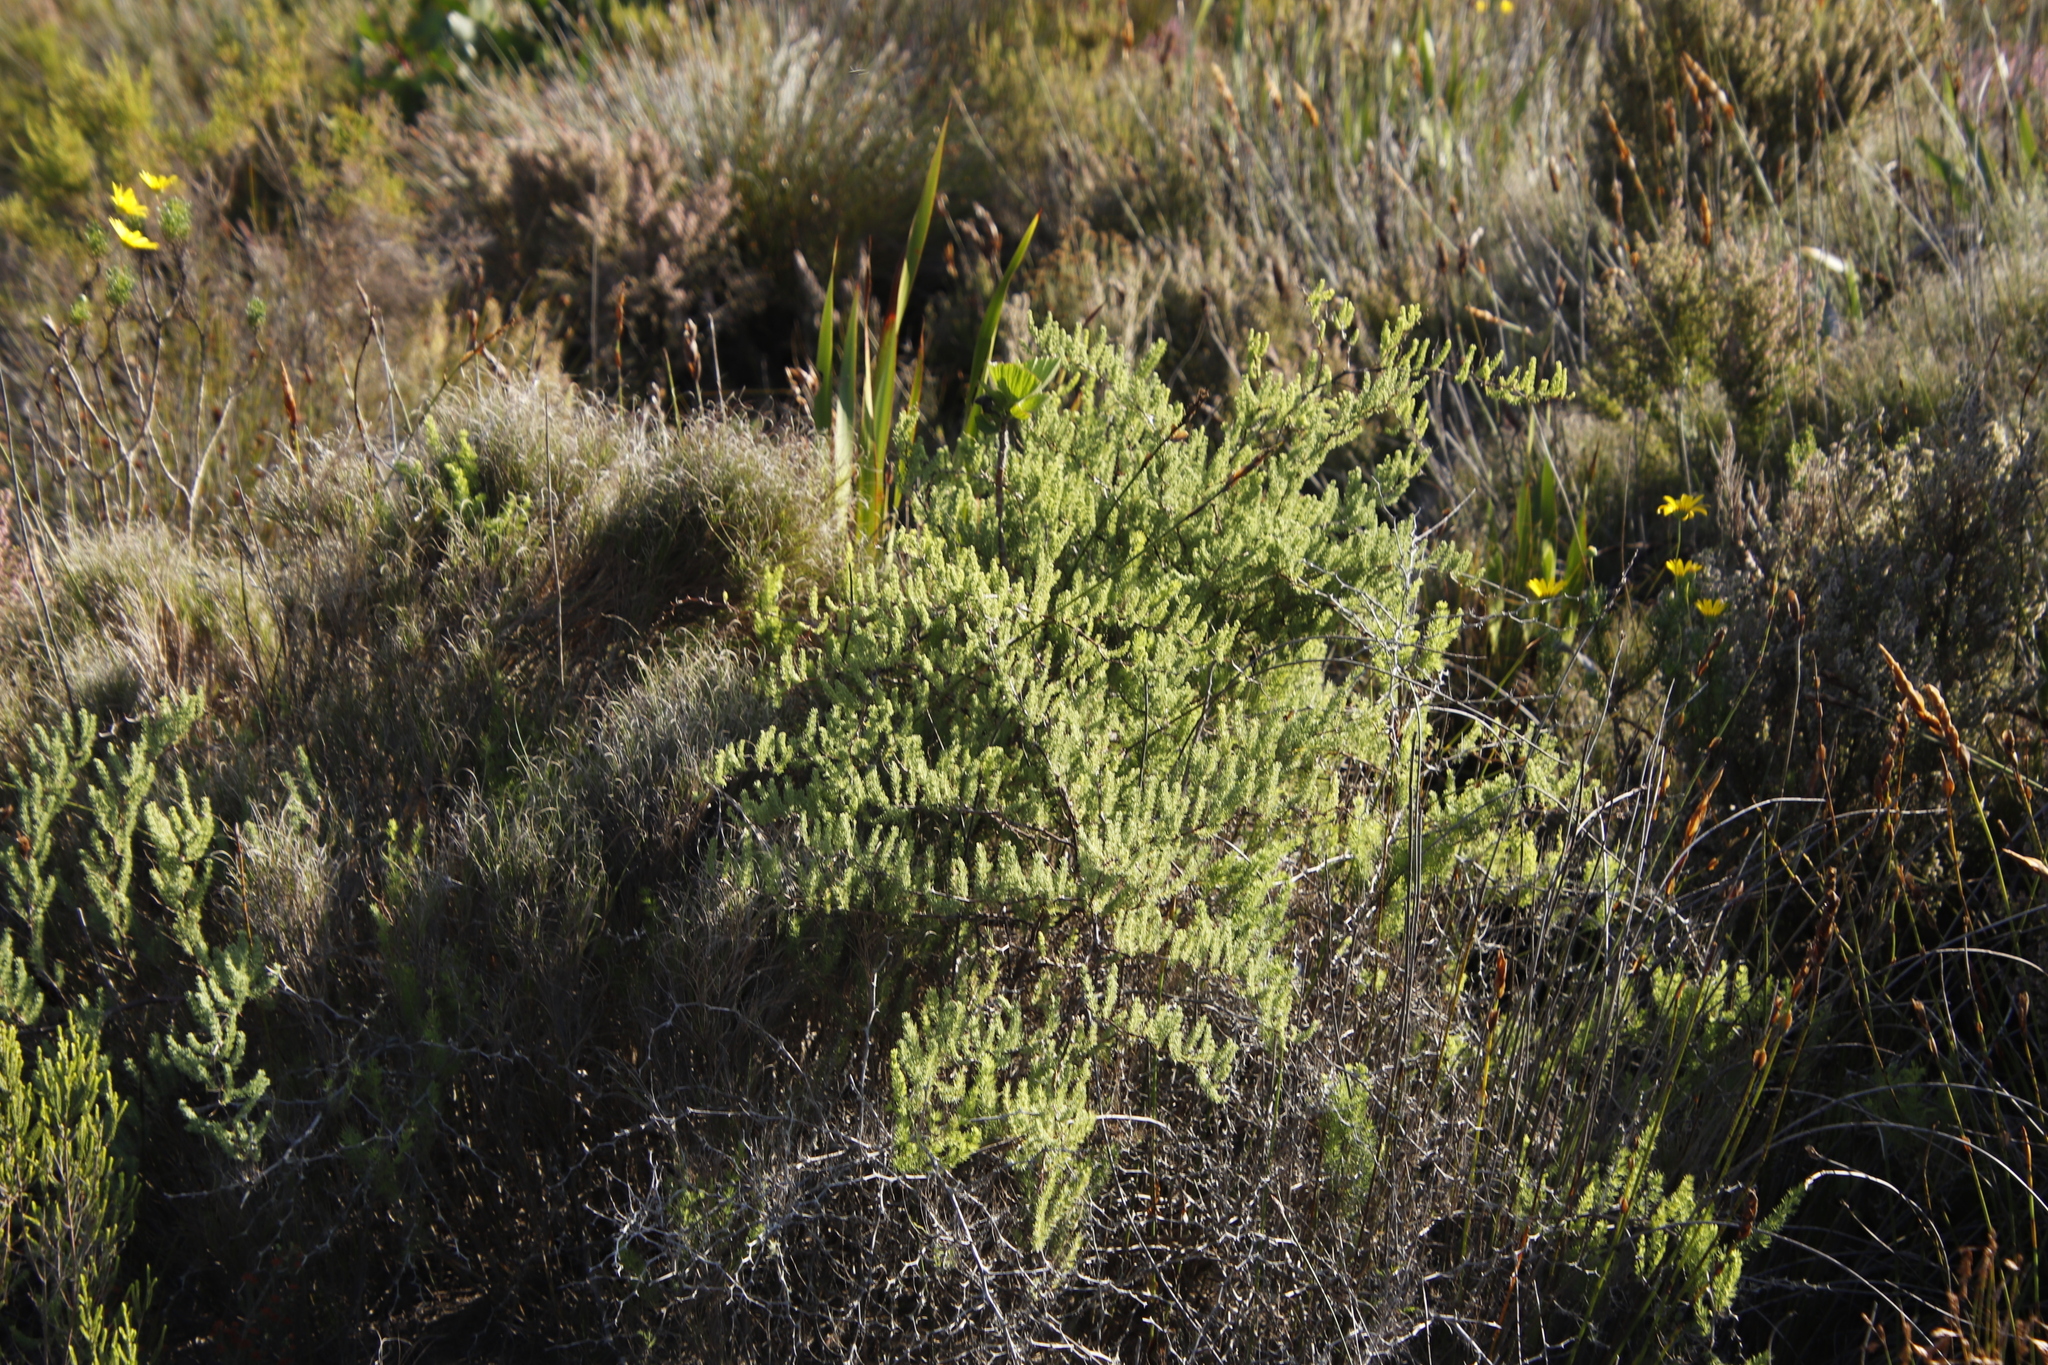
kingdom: Plantae
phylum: Tracheophyta
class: Liliopsida
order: Asparagales
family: Asparagaceae
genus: Asparagus
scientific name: Asparagus rubicundus
